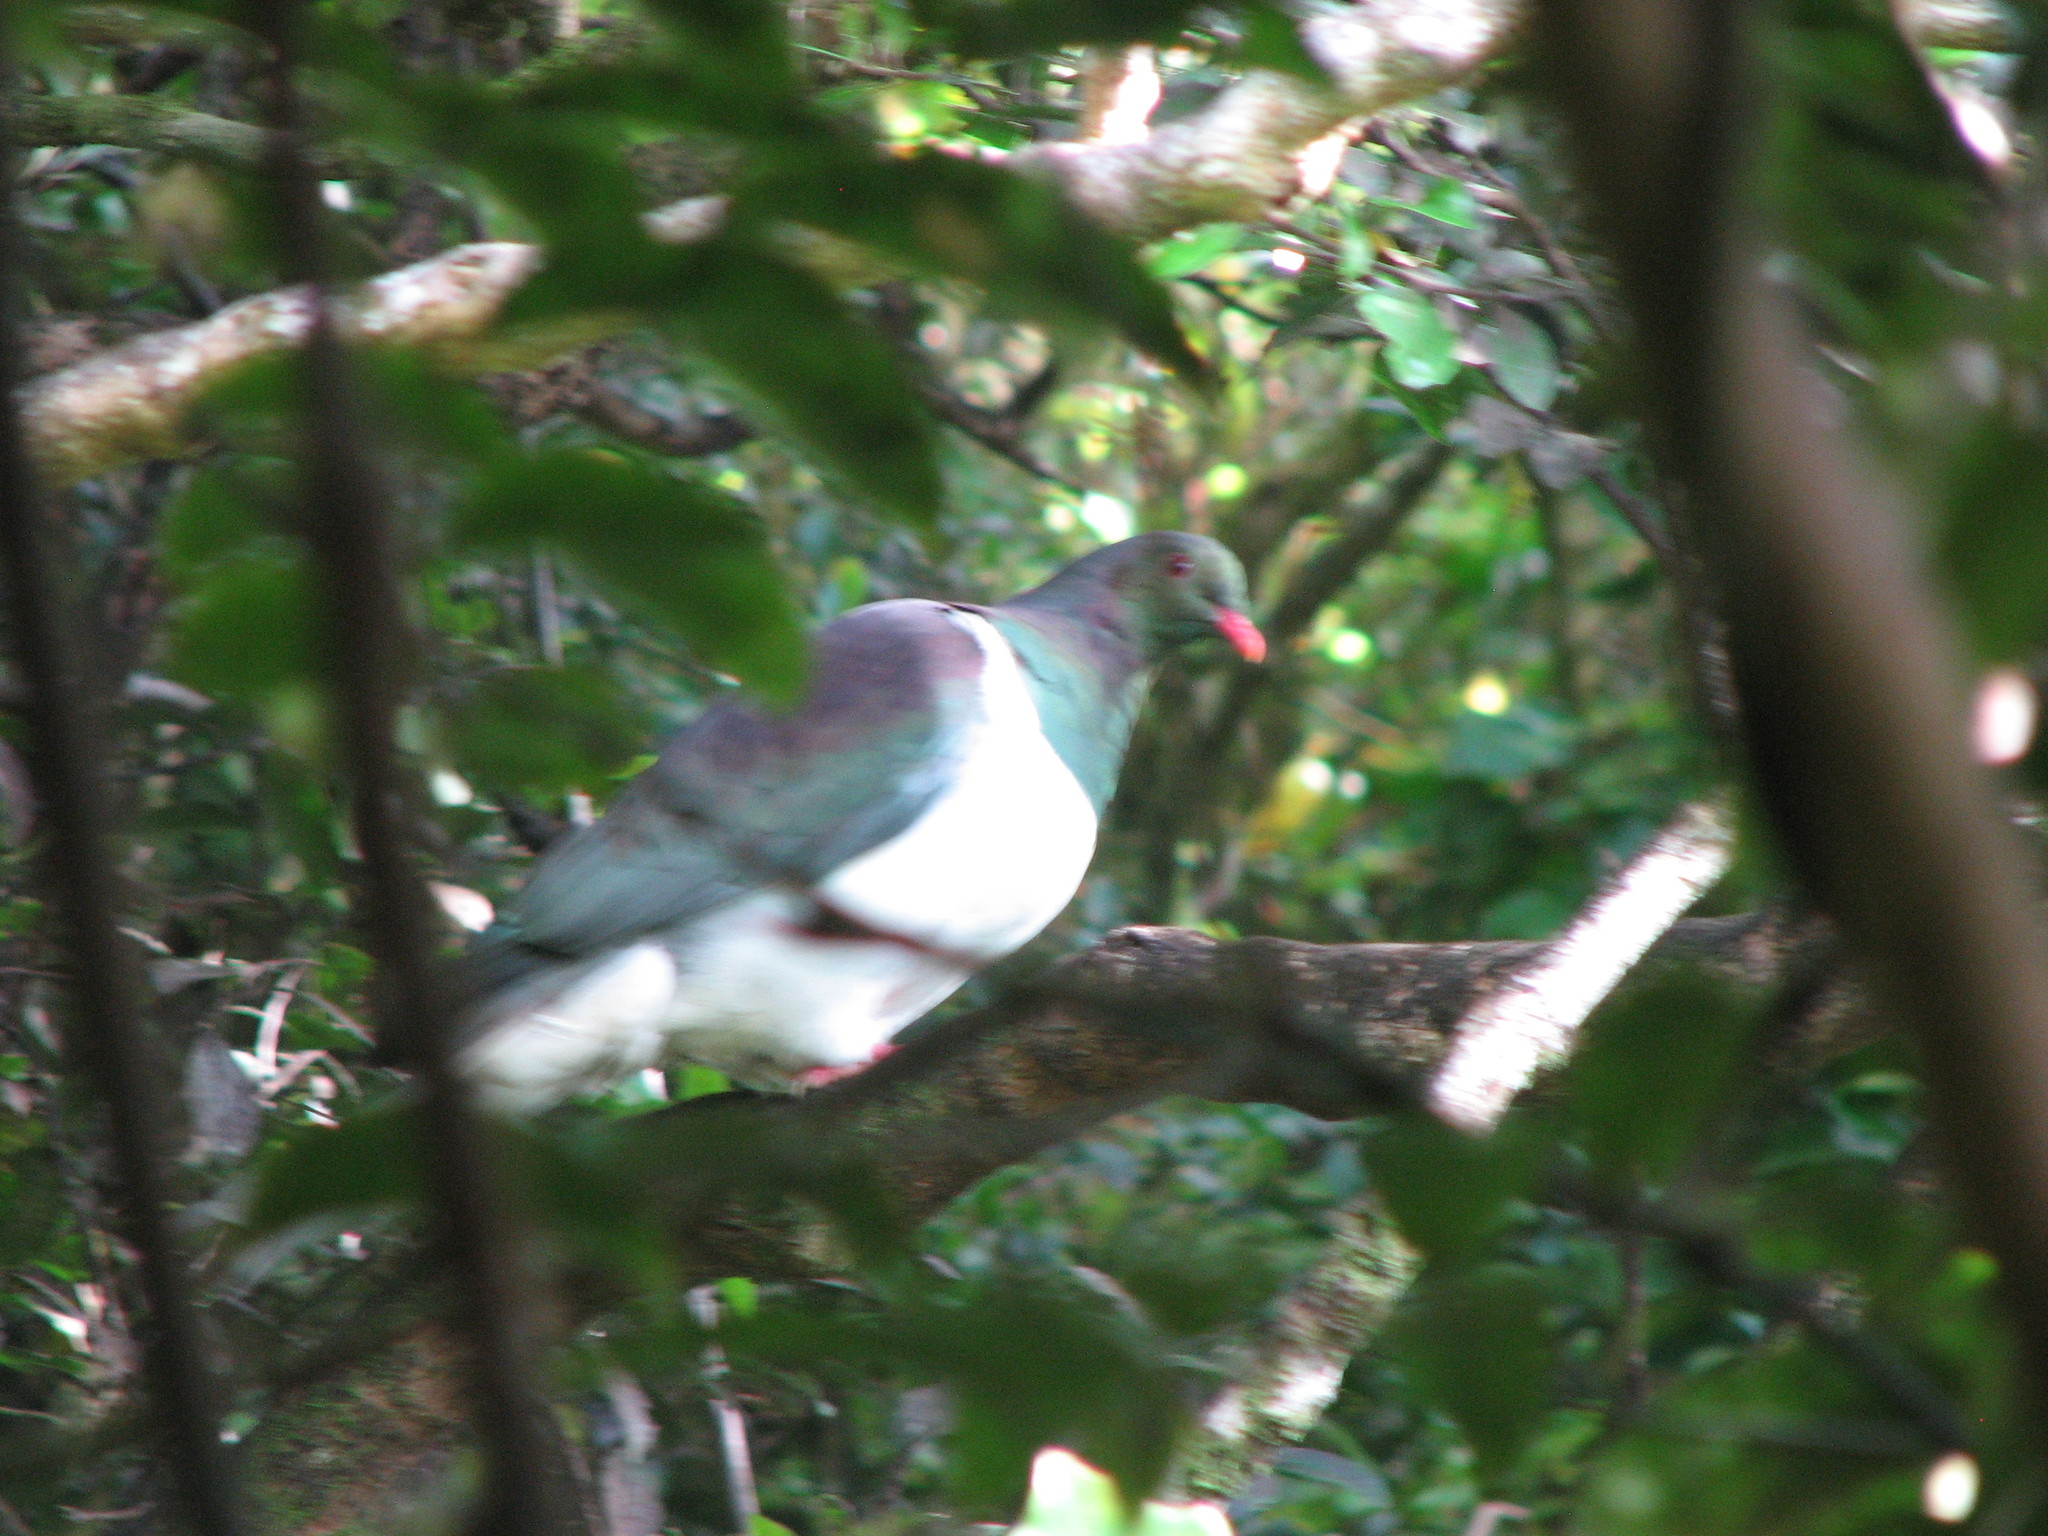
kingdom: Animalia
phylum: Chordata
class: Aves
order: Columbiformes
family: Columbidae
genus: Hemiphaga
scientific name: Hemiphaga novaeseelandiae
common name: New zealand pigeon
